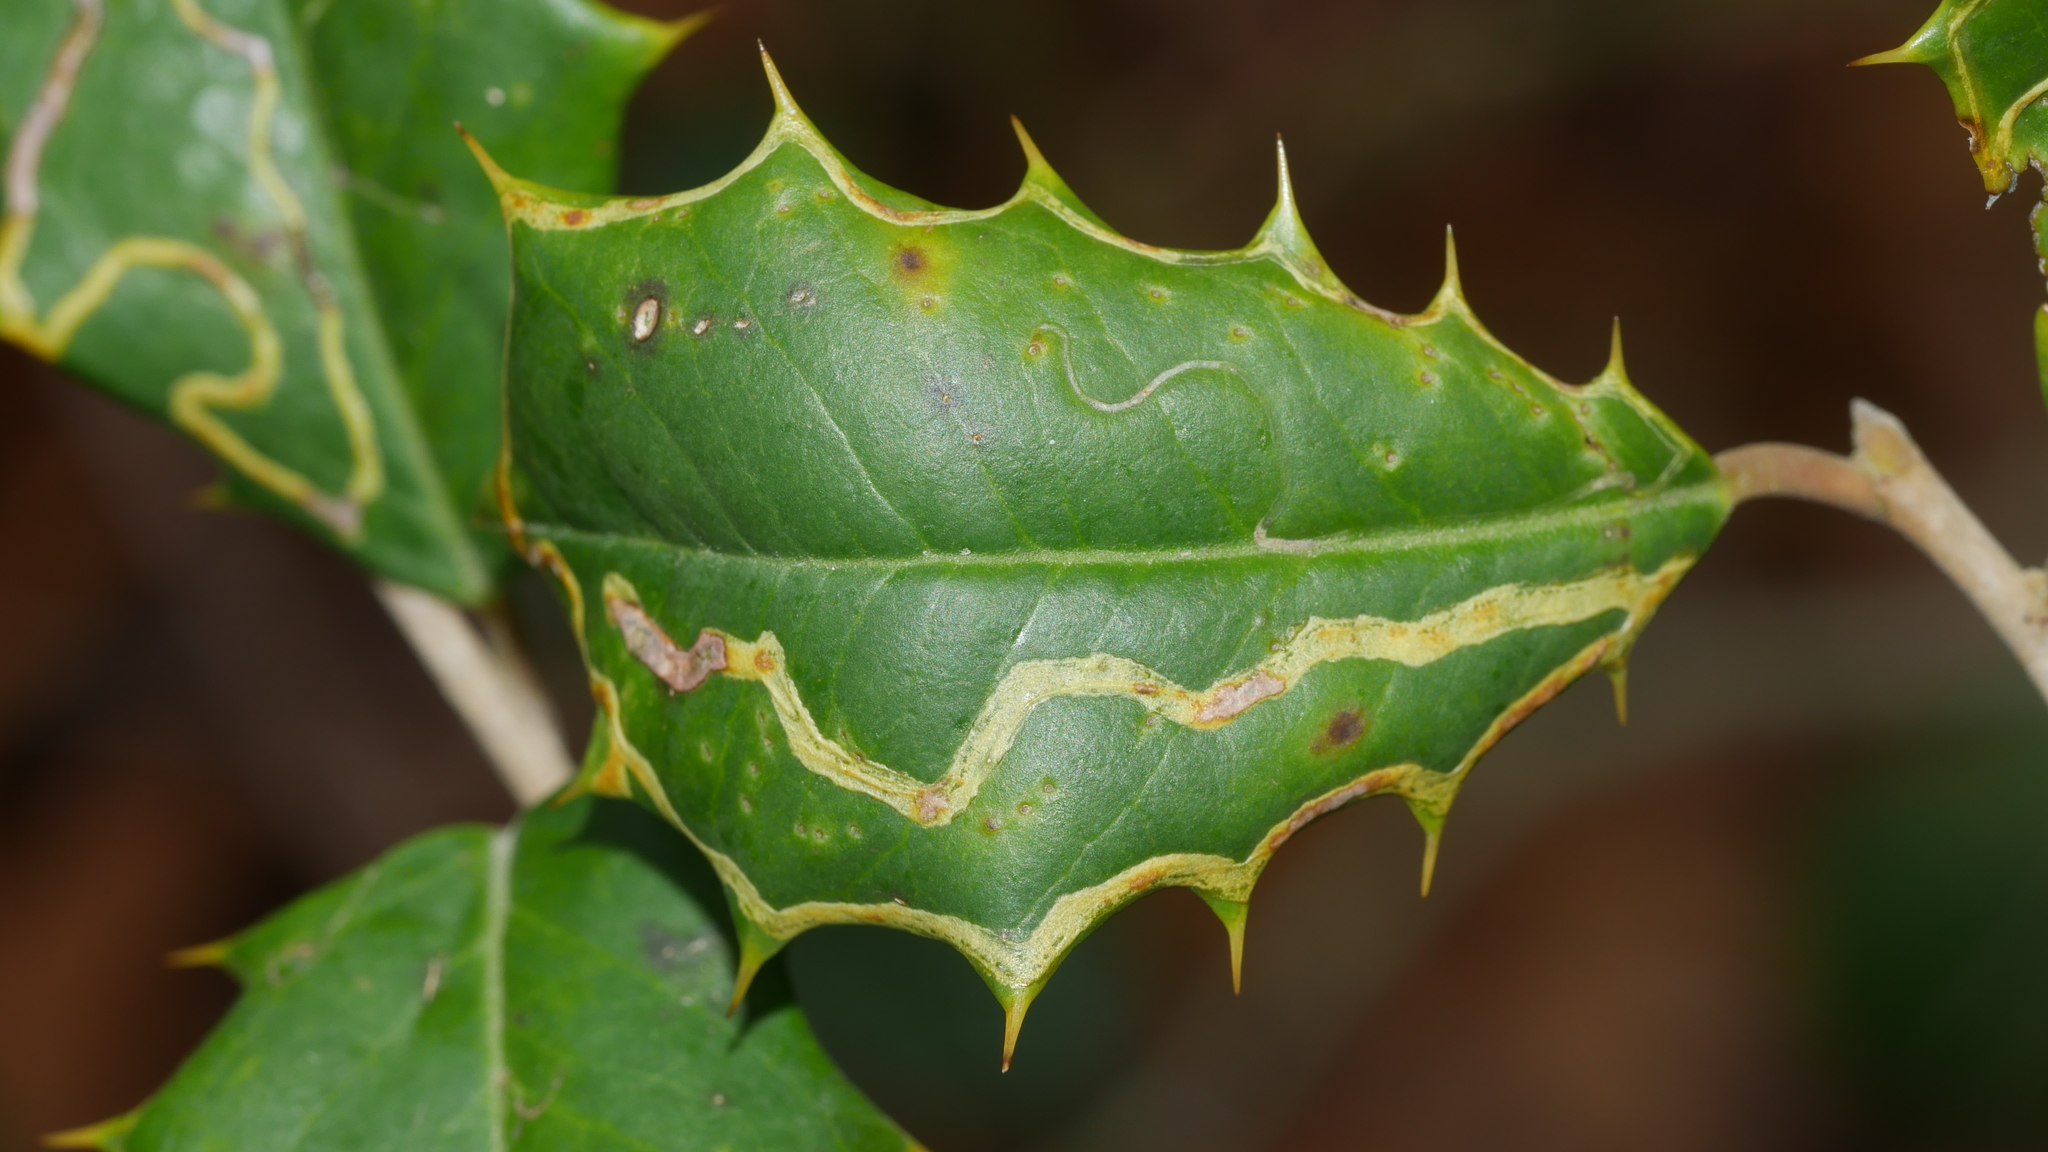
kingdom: Animalia
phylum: Arthropoda
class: Insecta
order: Diptera
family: Agromyzidae
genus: Phytomyza
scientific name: Phytomyza opacae
